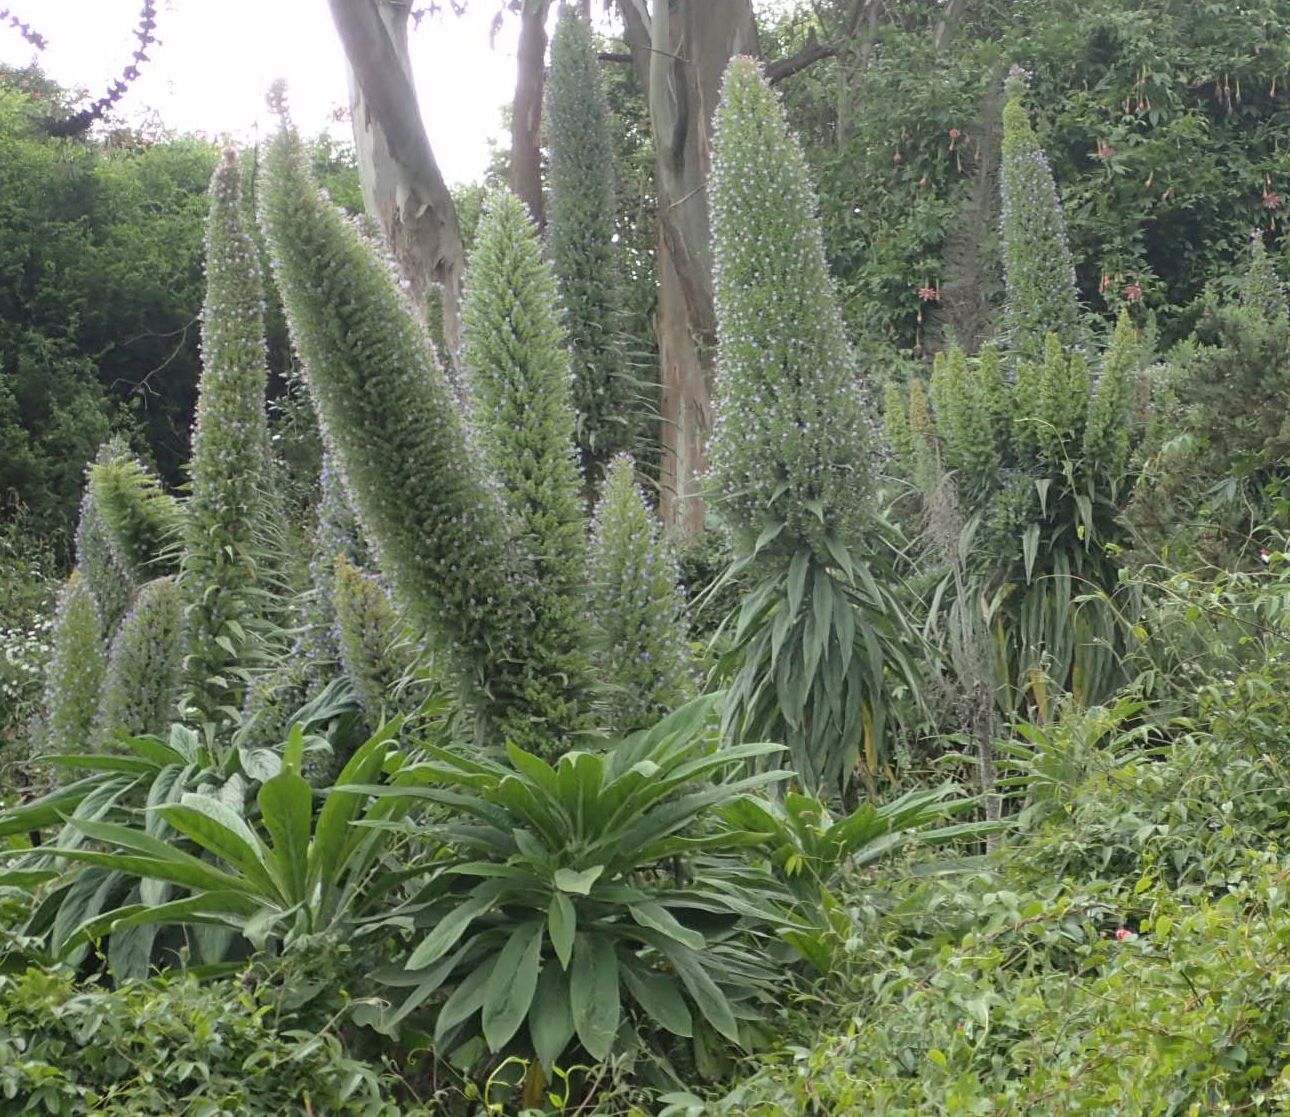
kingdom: Plantae
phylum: Tracheophyta
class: Magnoliopsida
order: Boraginales
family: Boraginaceae
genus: Echium
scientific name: Echium pininana
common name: Giant viper's-bugloss
